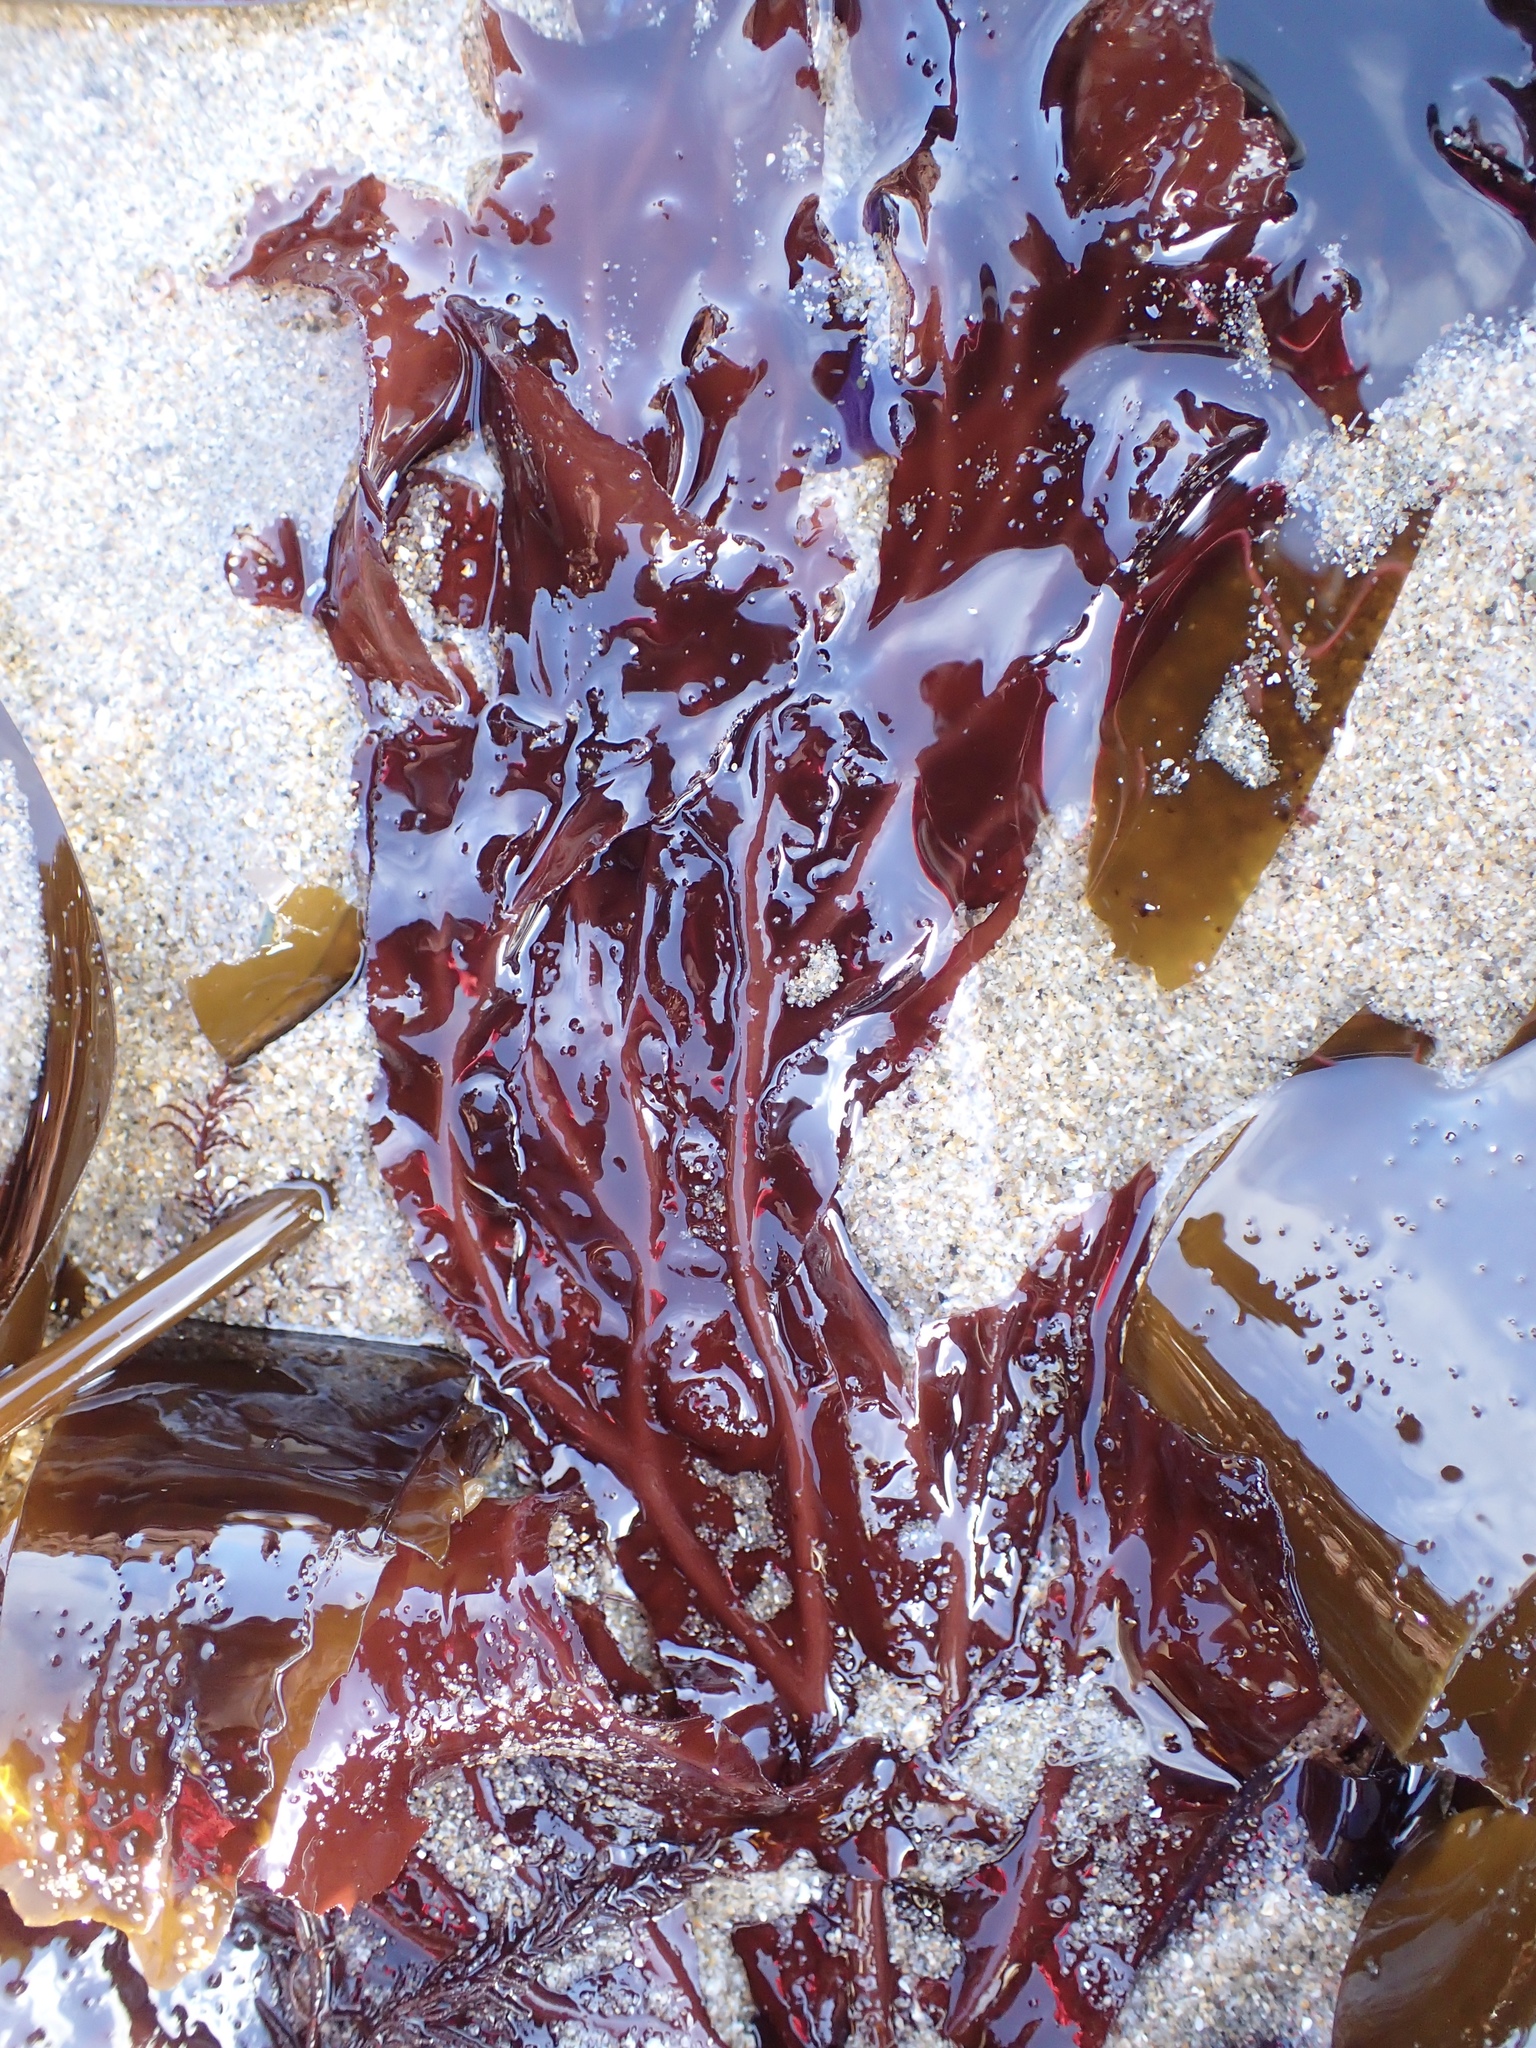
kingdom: Plantae
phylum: Rhodophyta
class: Florideophyceae
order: Gigartinales
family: Kallymeniaceae
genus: Erythrophyllum
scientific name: Erythrophyllum delesserioides
